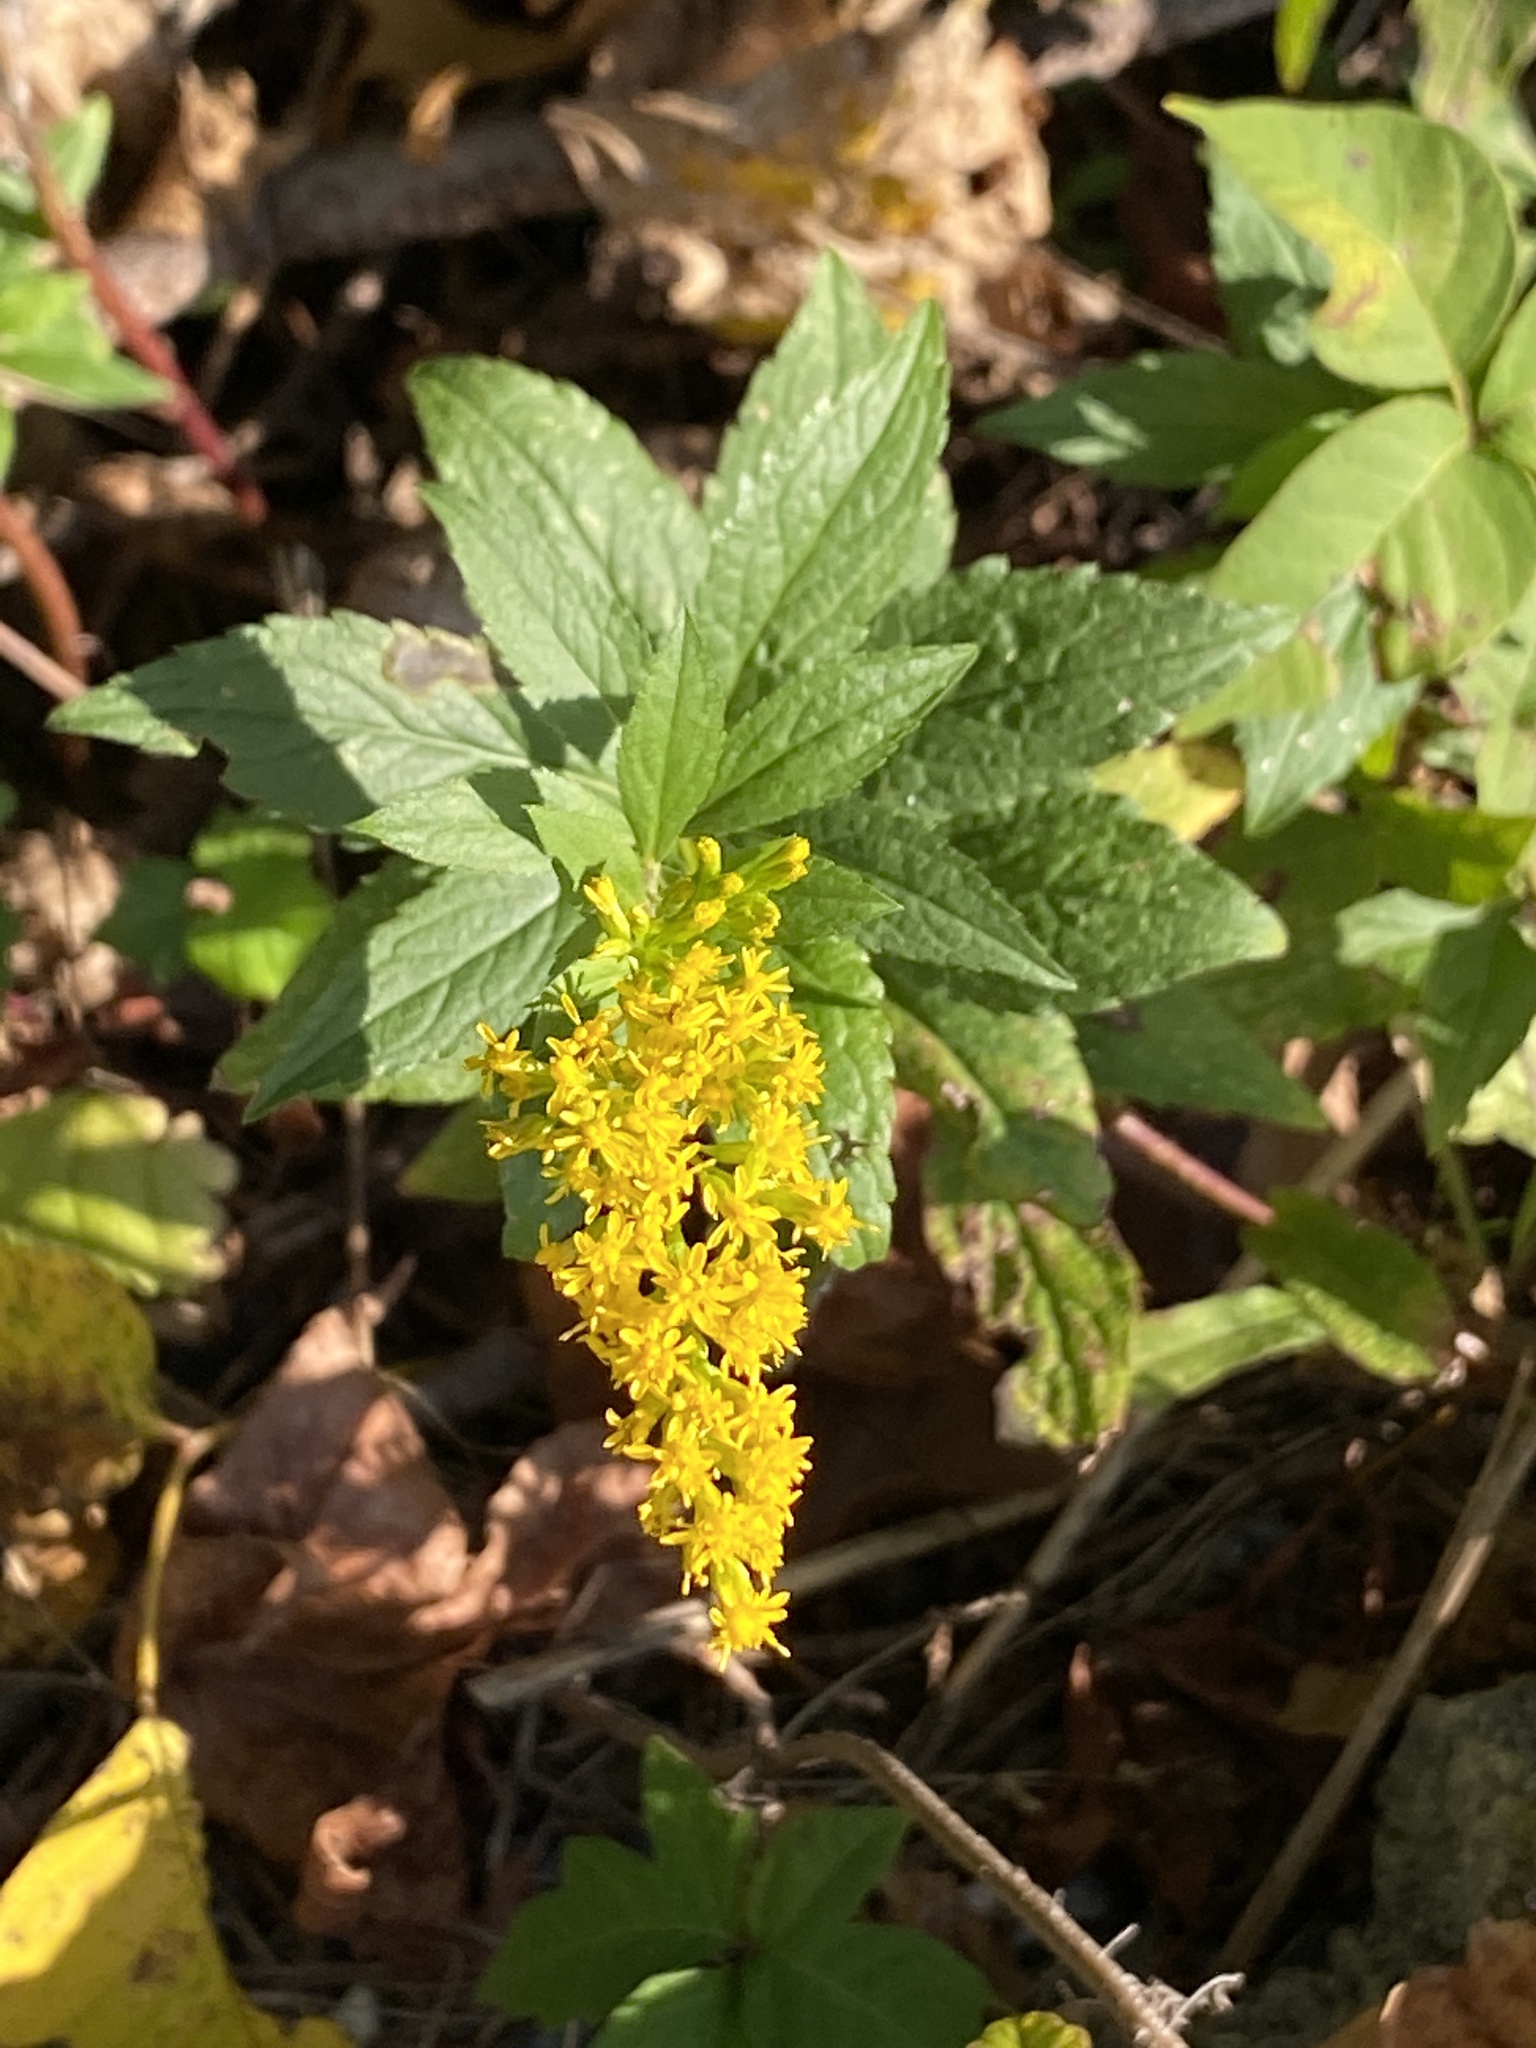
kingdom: Plantae
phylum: Tracheophyta
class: Magnoliopsida
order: Asterales
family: Asteraceae
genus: Solidago
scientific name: Solidago rugosa
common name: Rough-stemmed goldenrod
